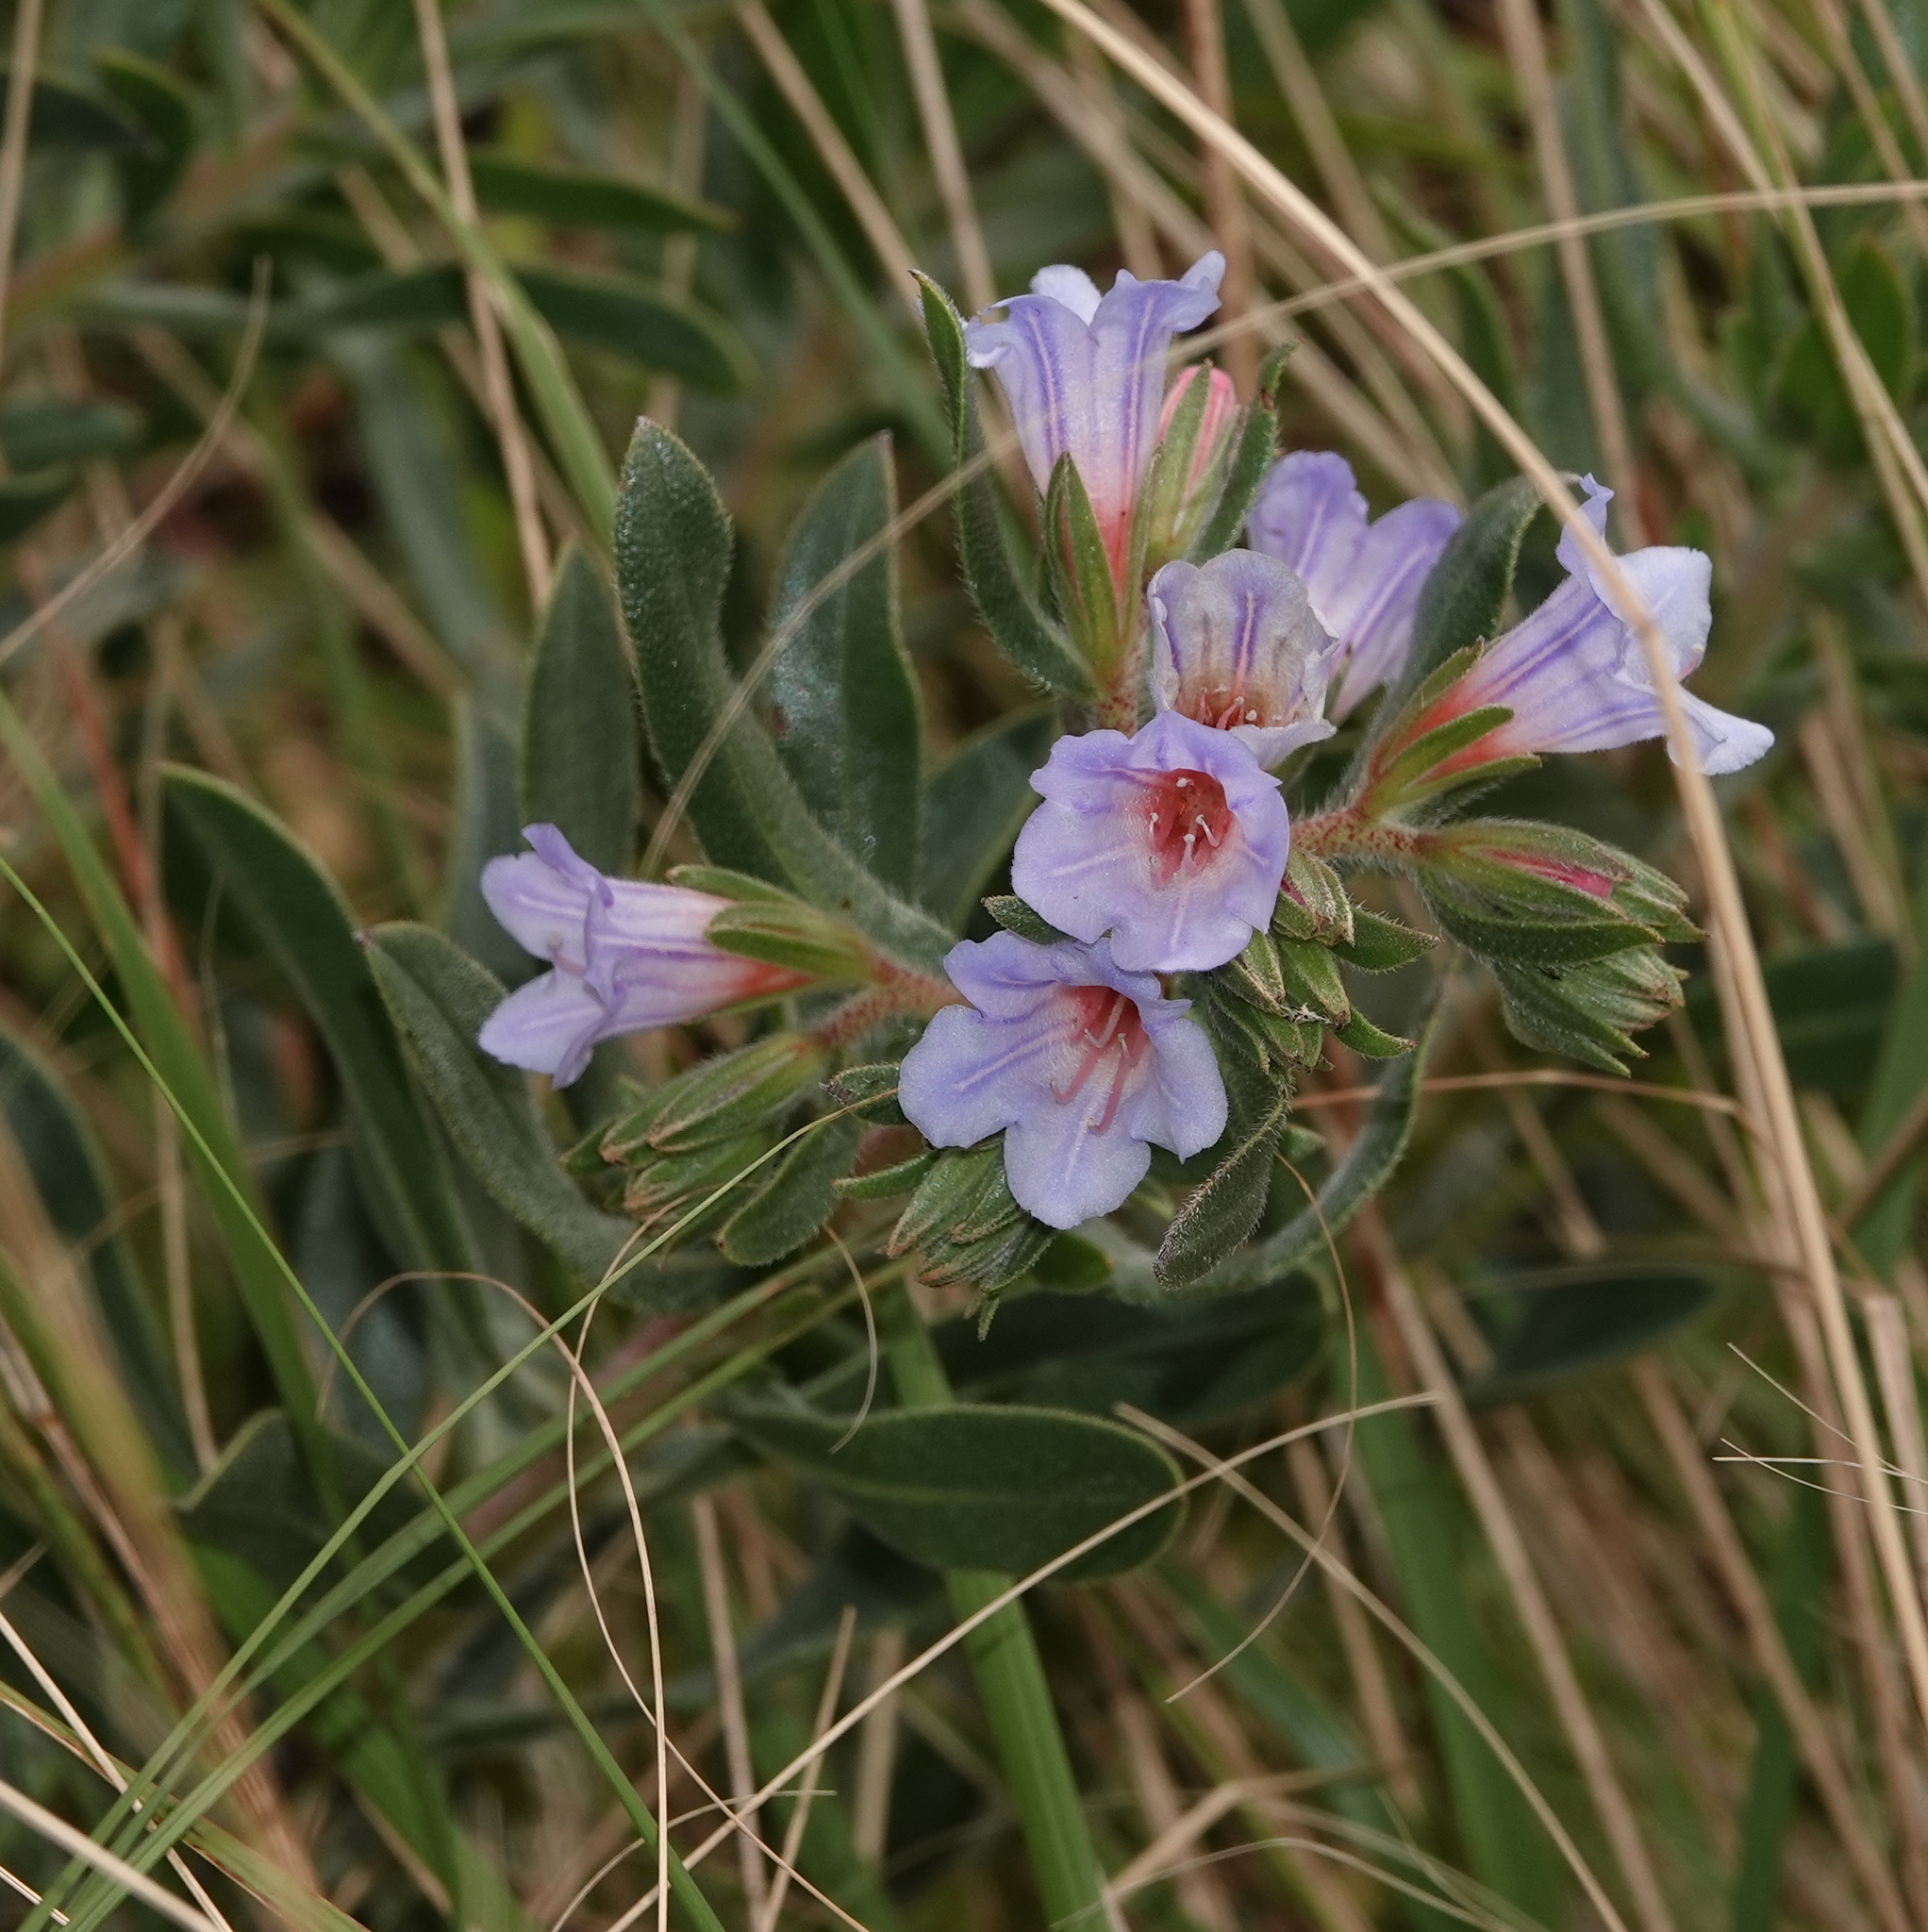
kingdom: Plantae
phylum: Tracheophyta
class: Magnoliopsida
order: Boraginales
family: Boraginaceae
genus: Lobostemon
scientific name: Lobostemon fruticosus
